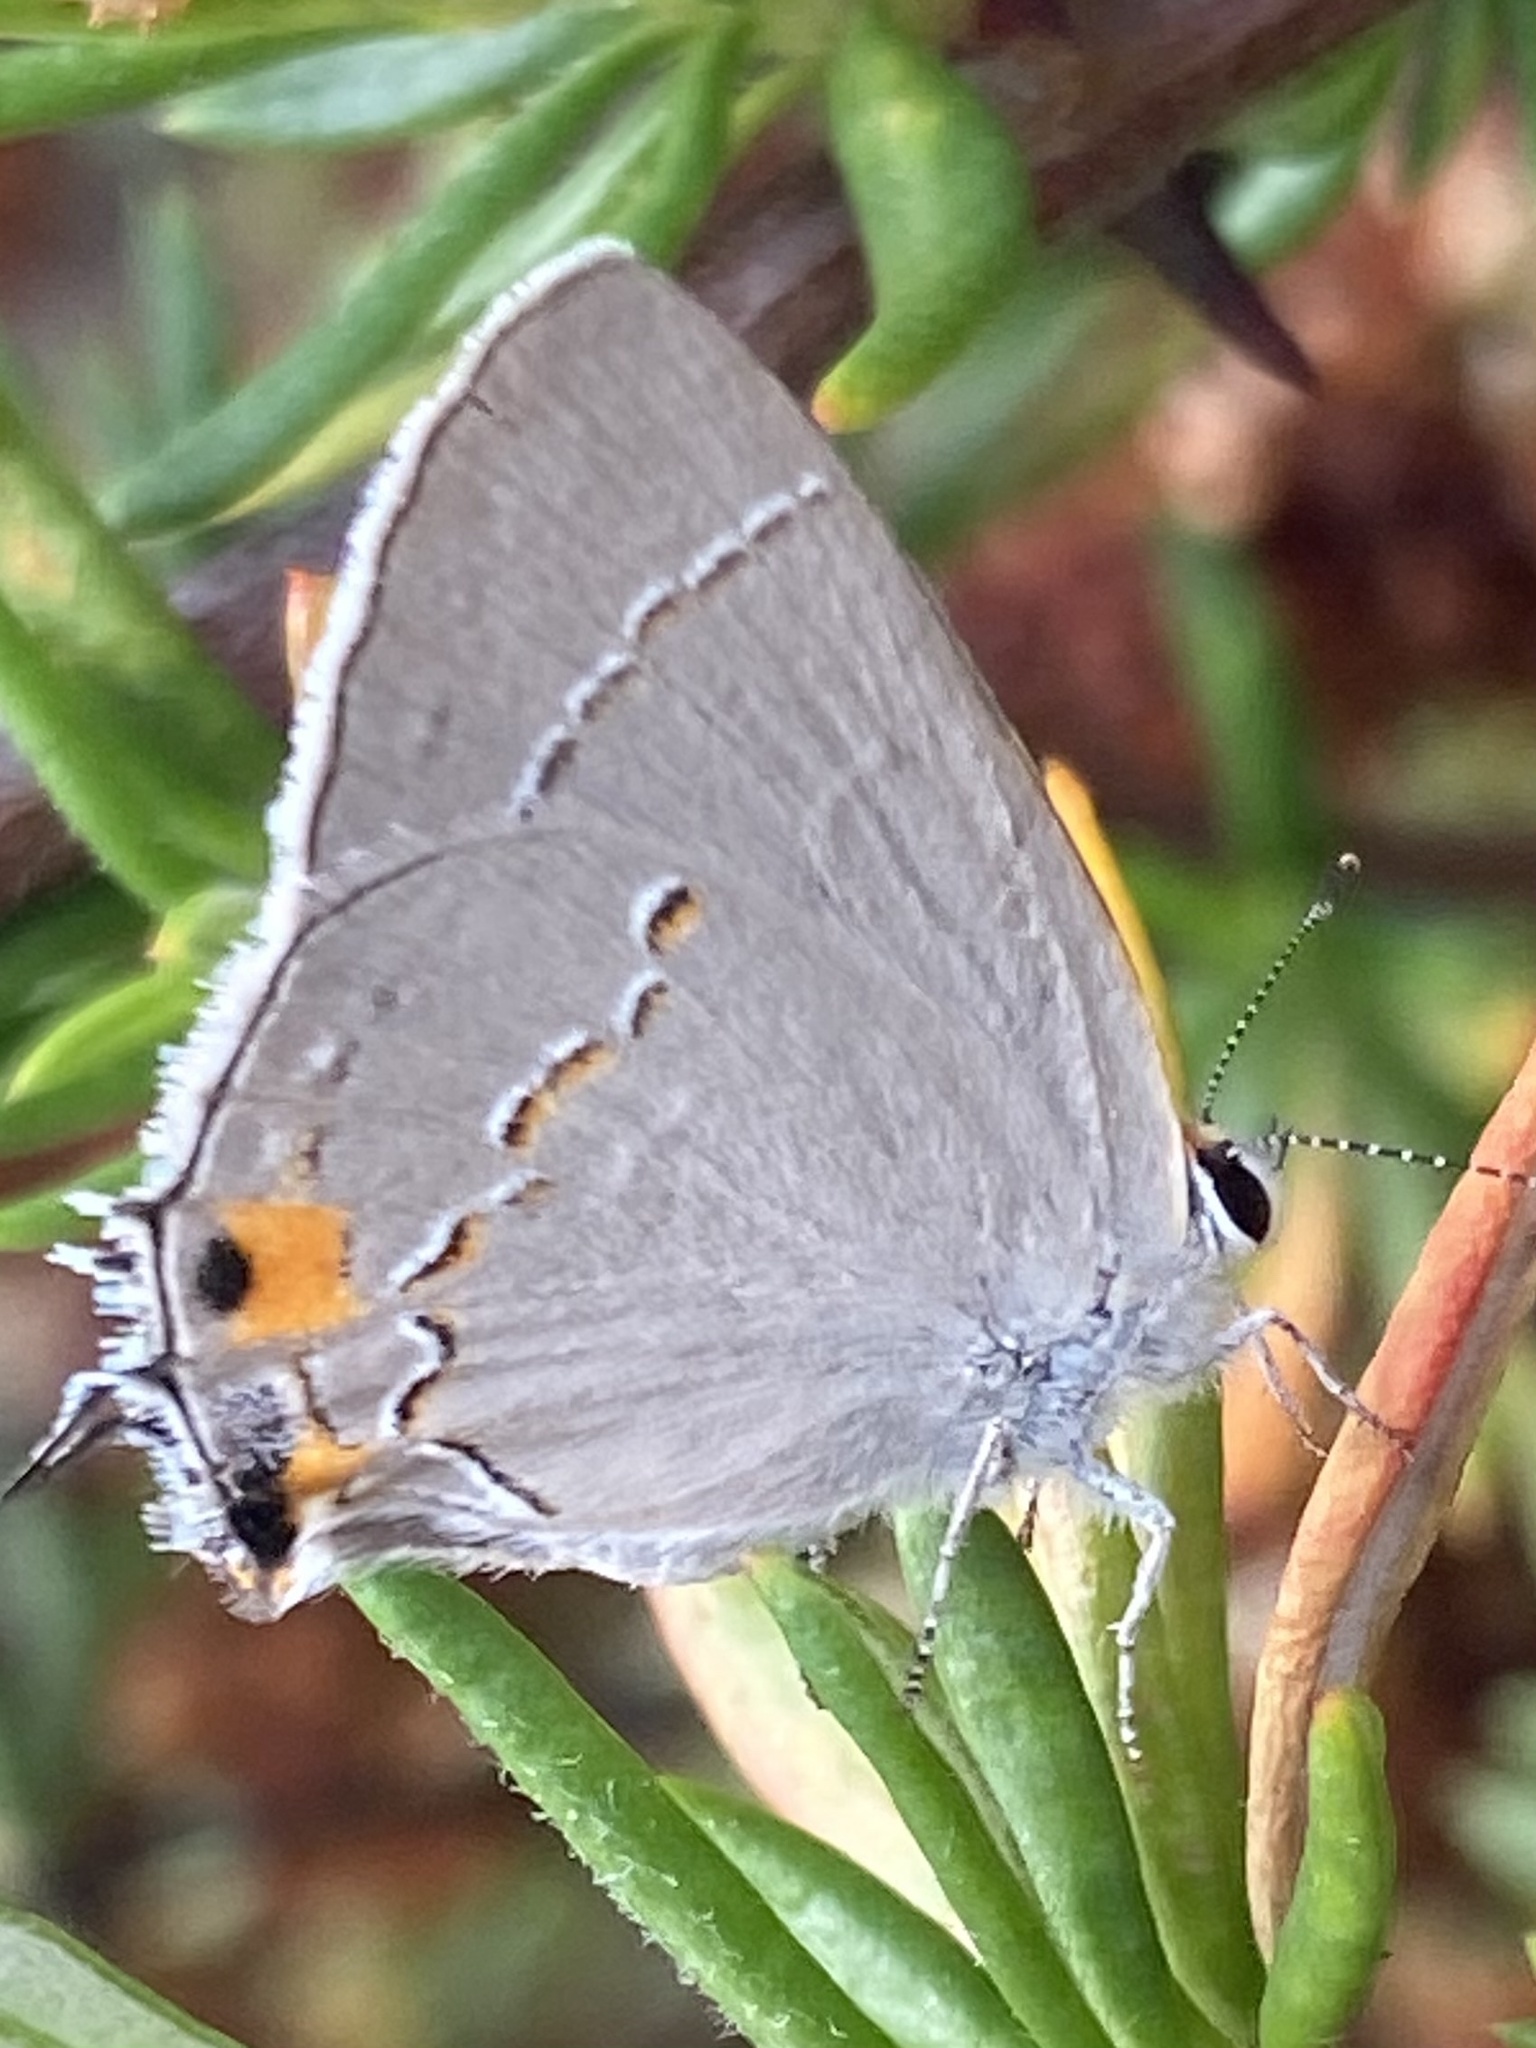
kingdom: Animalia
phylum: Arthropoda
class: Insecta
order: Lepidoptera
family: Lycaenidae
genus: Strymon
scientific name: Strymon melinus
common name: Gray hairstreak
